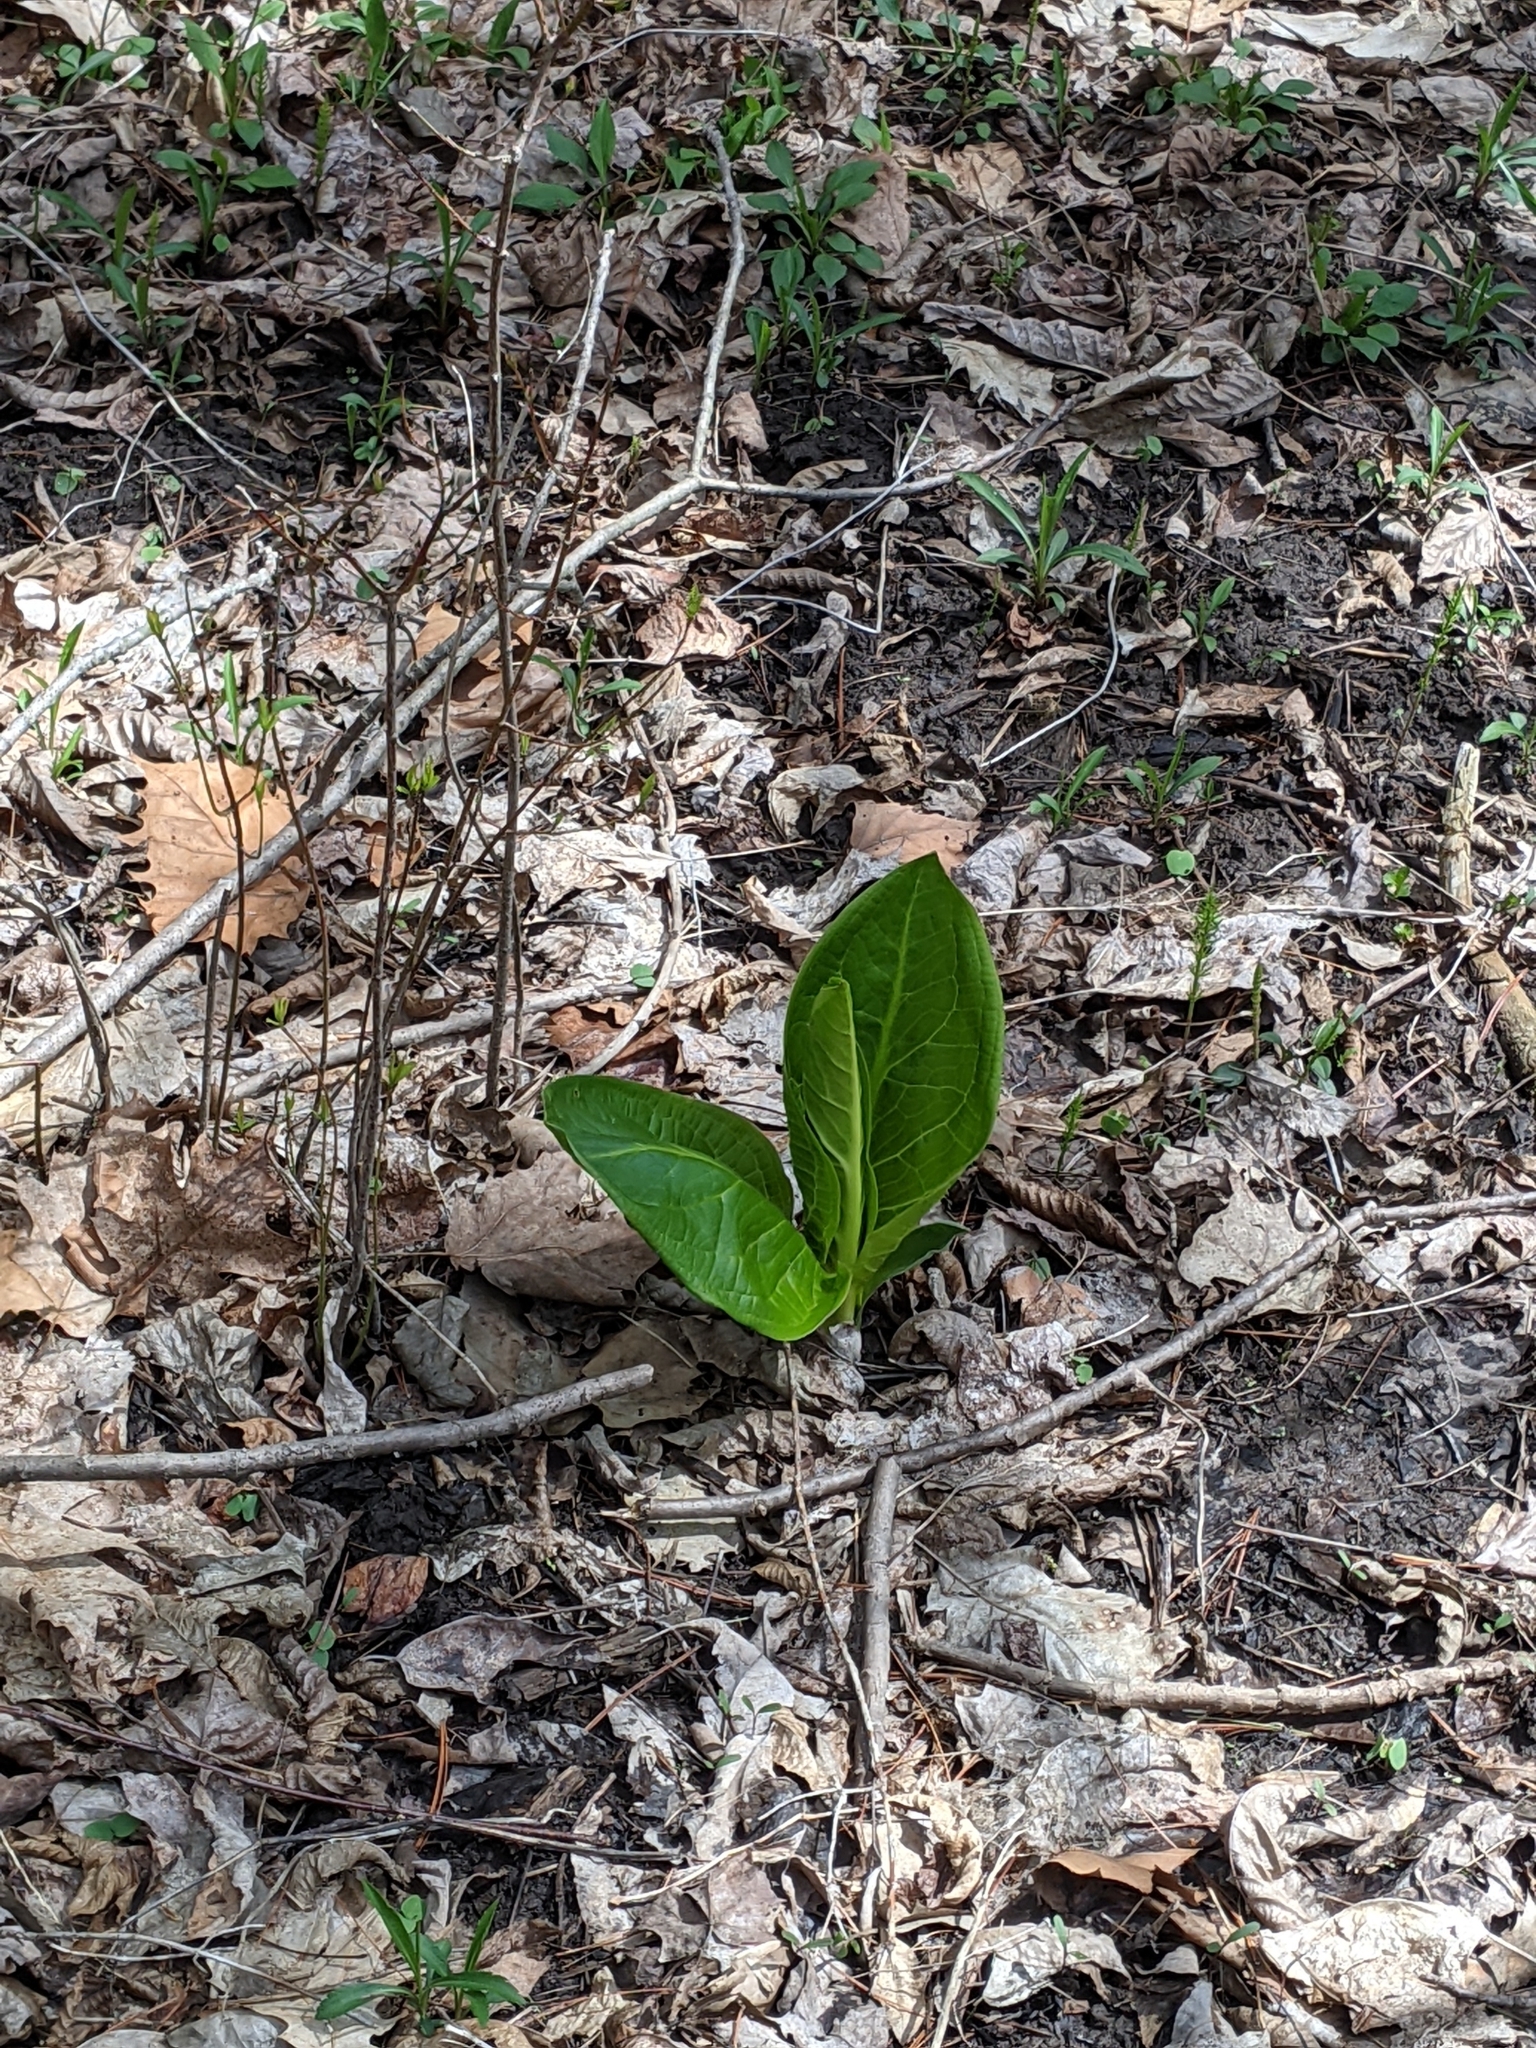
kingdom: Plantae
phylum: Tracheophyta
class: Liliopsida
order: Alismatales
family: Araceae
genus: Symplocarpus
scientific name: Symplocarpus foetidus
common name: Eastern skunk cabbage
